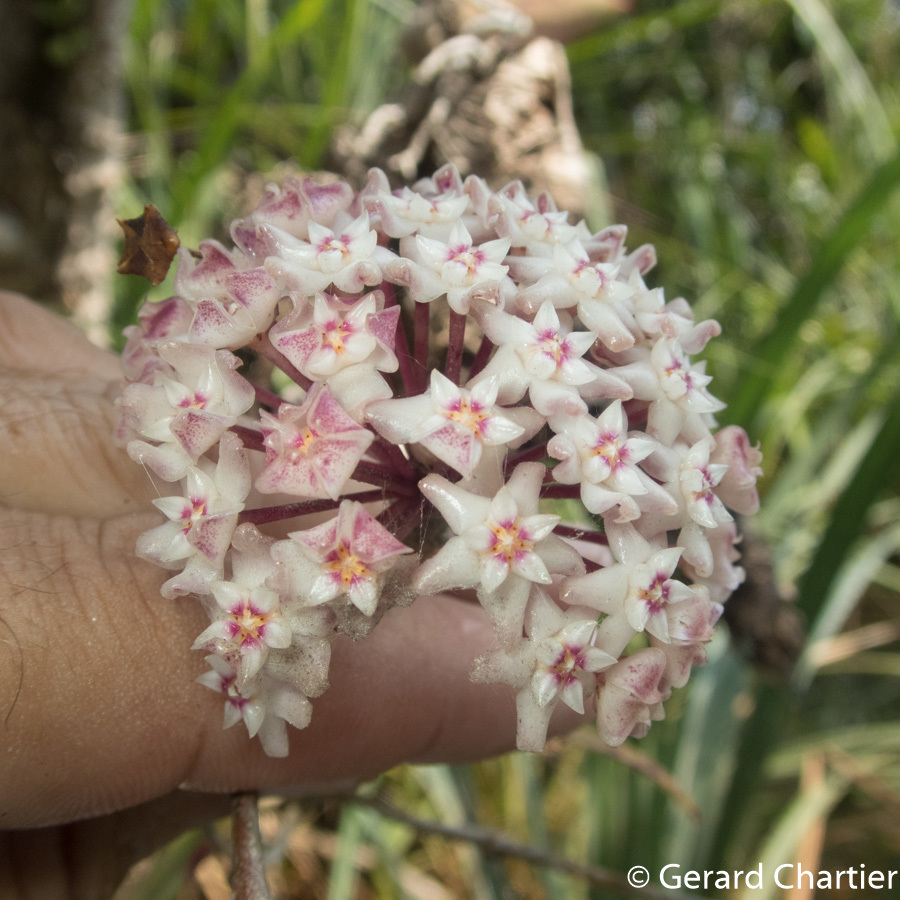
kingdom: Plantae
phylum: Tracheophyta
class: Magnoliopsida
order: Gentianales
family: Apocynaceae
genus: Hoya
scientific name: Hoya verticillata
